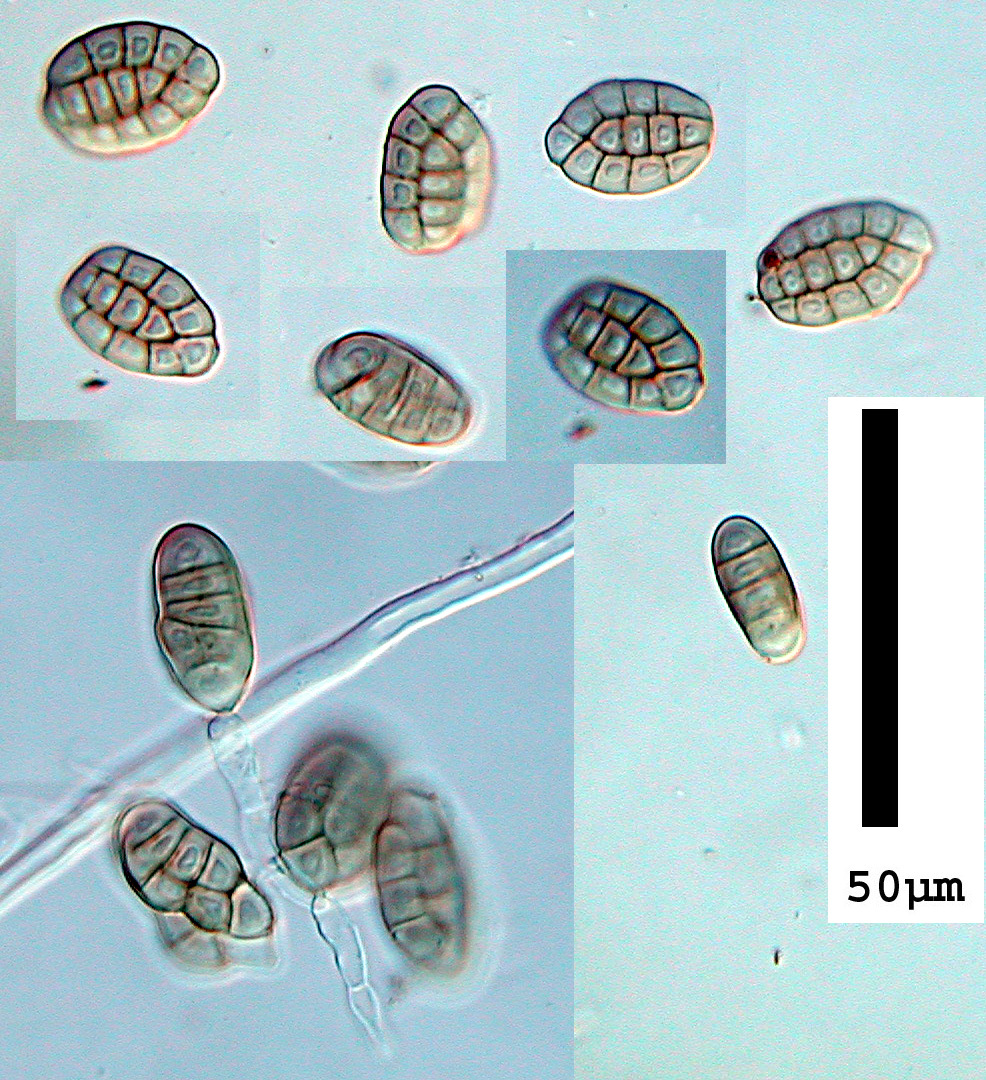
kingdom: Fungi
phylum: Ascomycota
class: Dothideomycetes
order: Pleosporales
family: Dictyosporiaceae
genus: Pseudodictyosporium
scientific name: Pseudodictyosporium wauense
